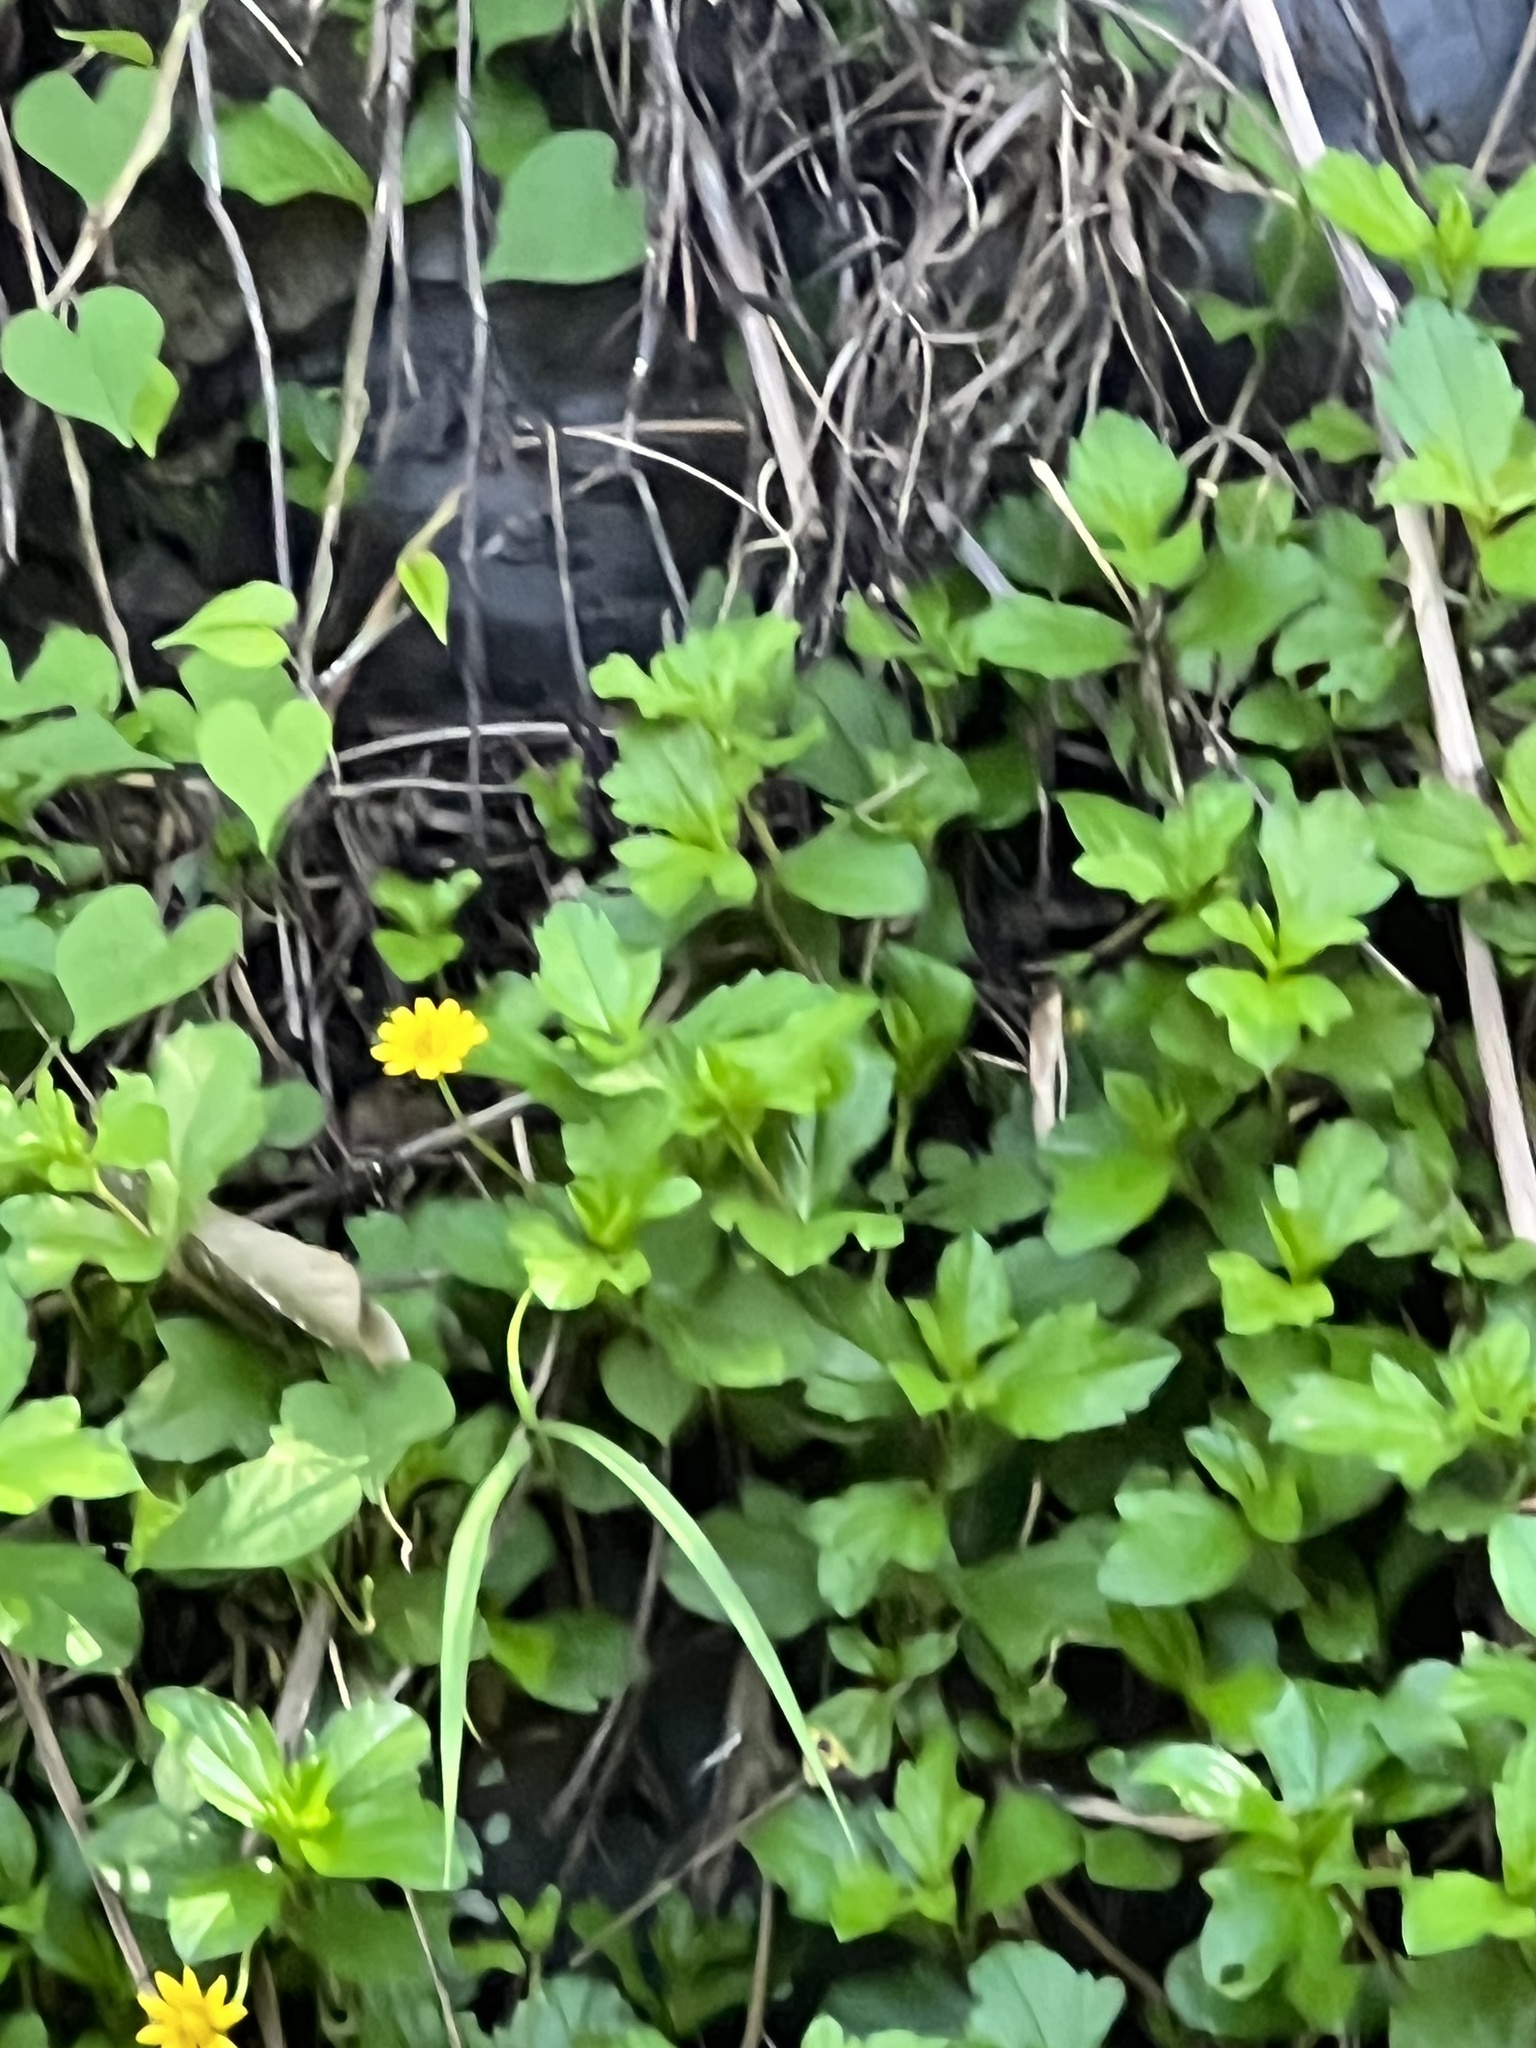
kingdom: Plantae
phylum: Tracheophyta
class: Magnoliopsida
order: Asterales
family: Asteraceae
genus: Sphagneticola
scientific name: Sphagneticola trilobata
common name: Bay biscayne creeping-oxeye
